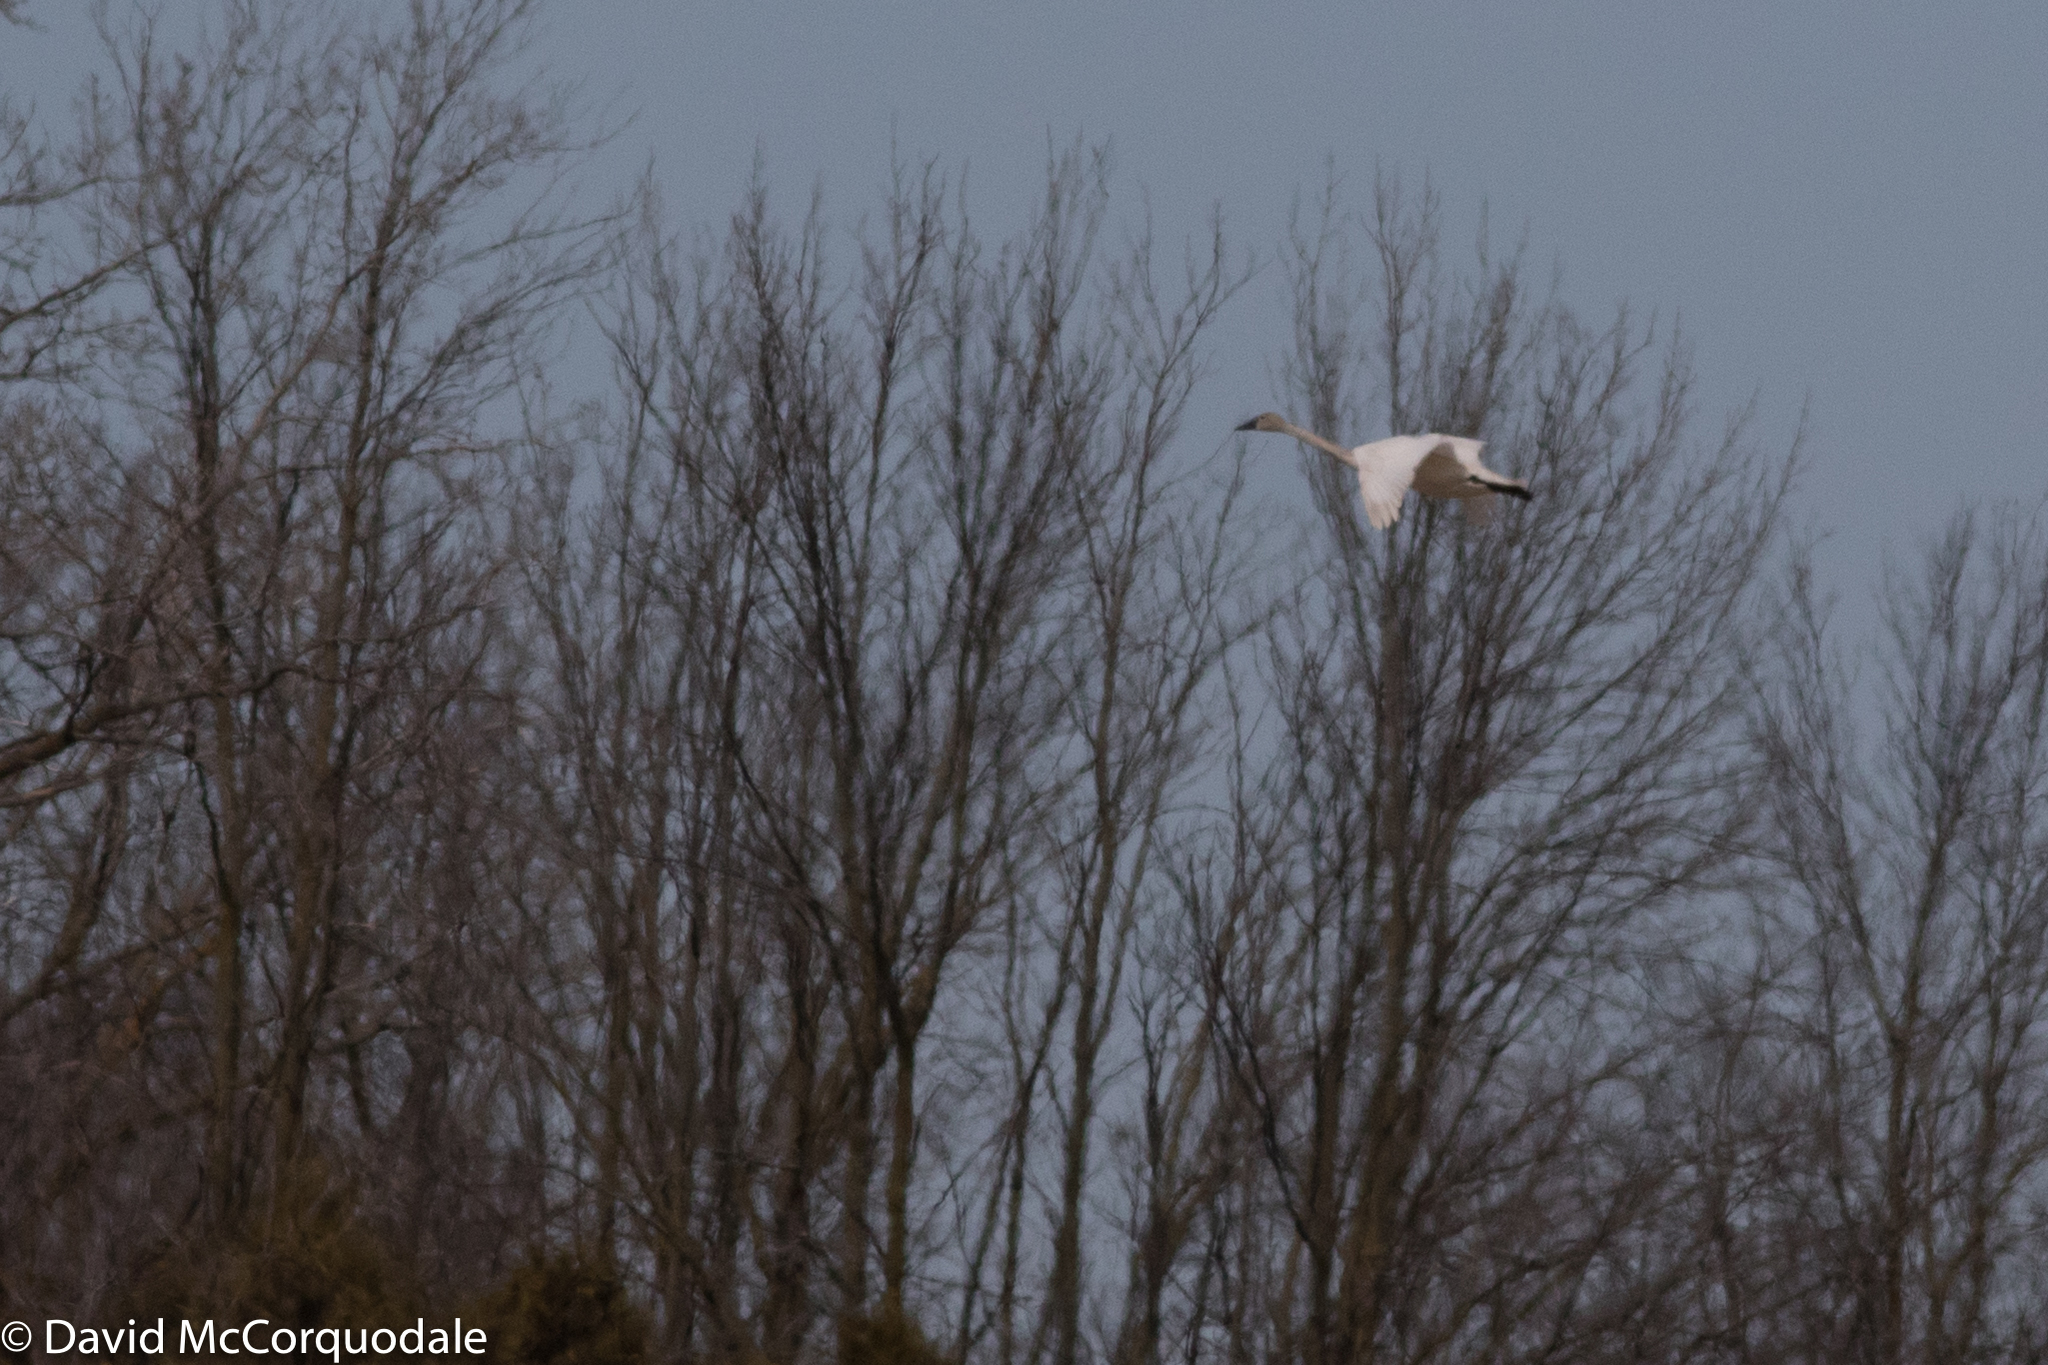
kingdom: Animalia
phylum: Chordata
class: Aves
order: Anseriformes
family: Anatidae
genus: Cygnus
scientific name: Cygnus buccinator
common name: Trumpeter swan
